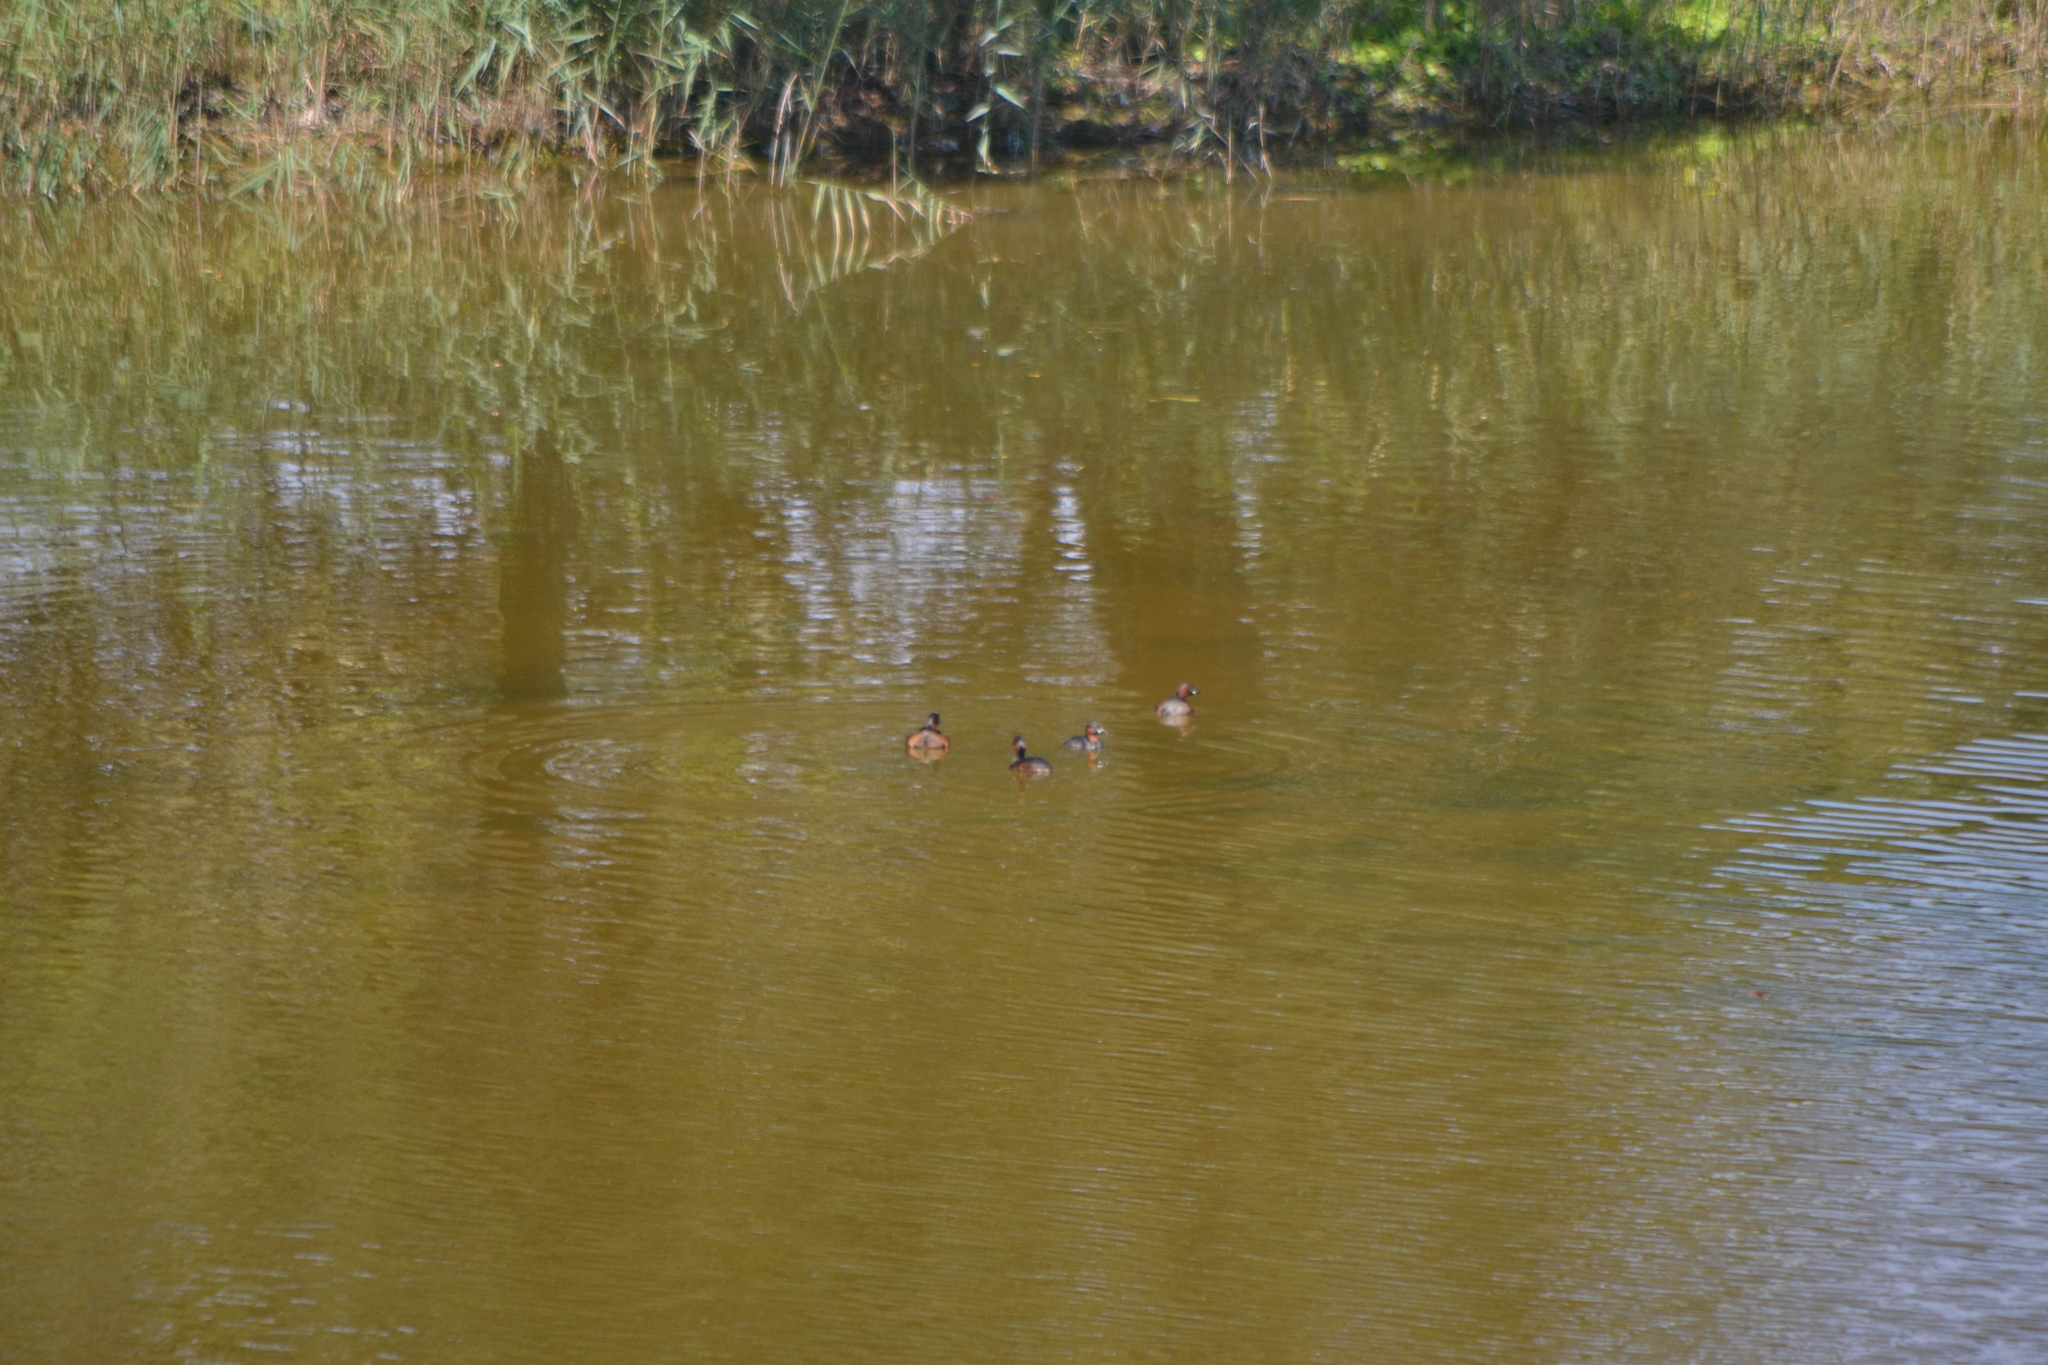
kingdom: Animalia
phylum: Chordata
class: Aves
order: Podicipediformes
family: Podicipedidae
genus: Tachybaptus
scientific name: Tachybaptus ruficollis
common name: Little grebe
